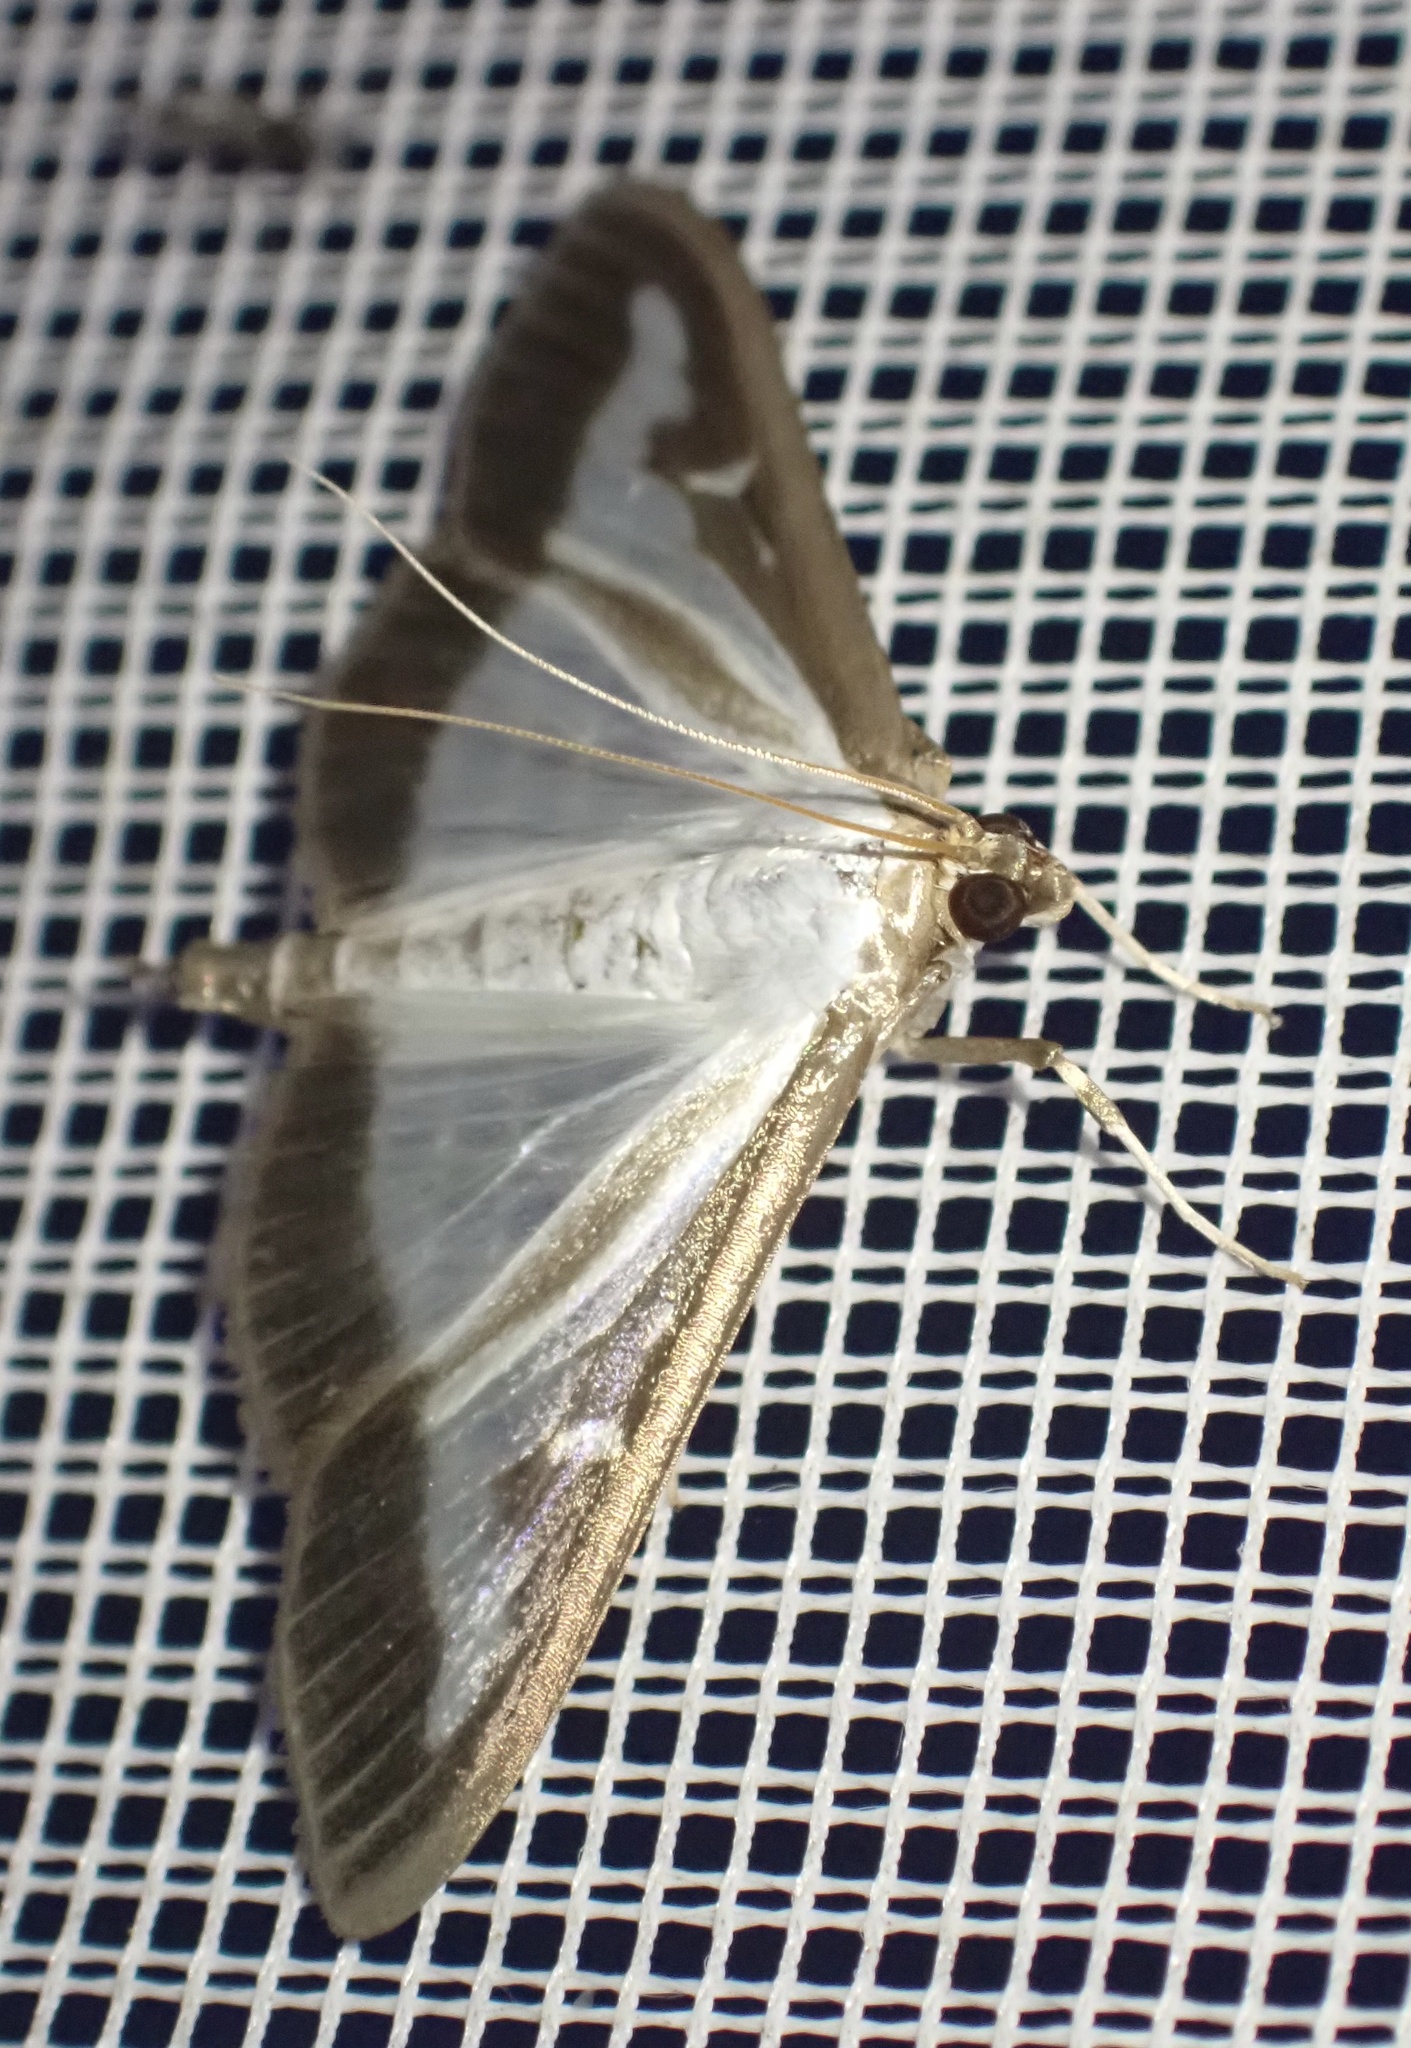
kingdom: Animalia
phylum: Arthropoda
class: Insecta
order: Lepidoptera
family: Crambidae
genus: Cydalima
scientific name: Cydalima perspectalis
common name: Box tree moth
